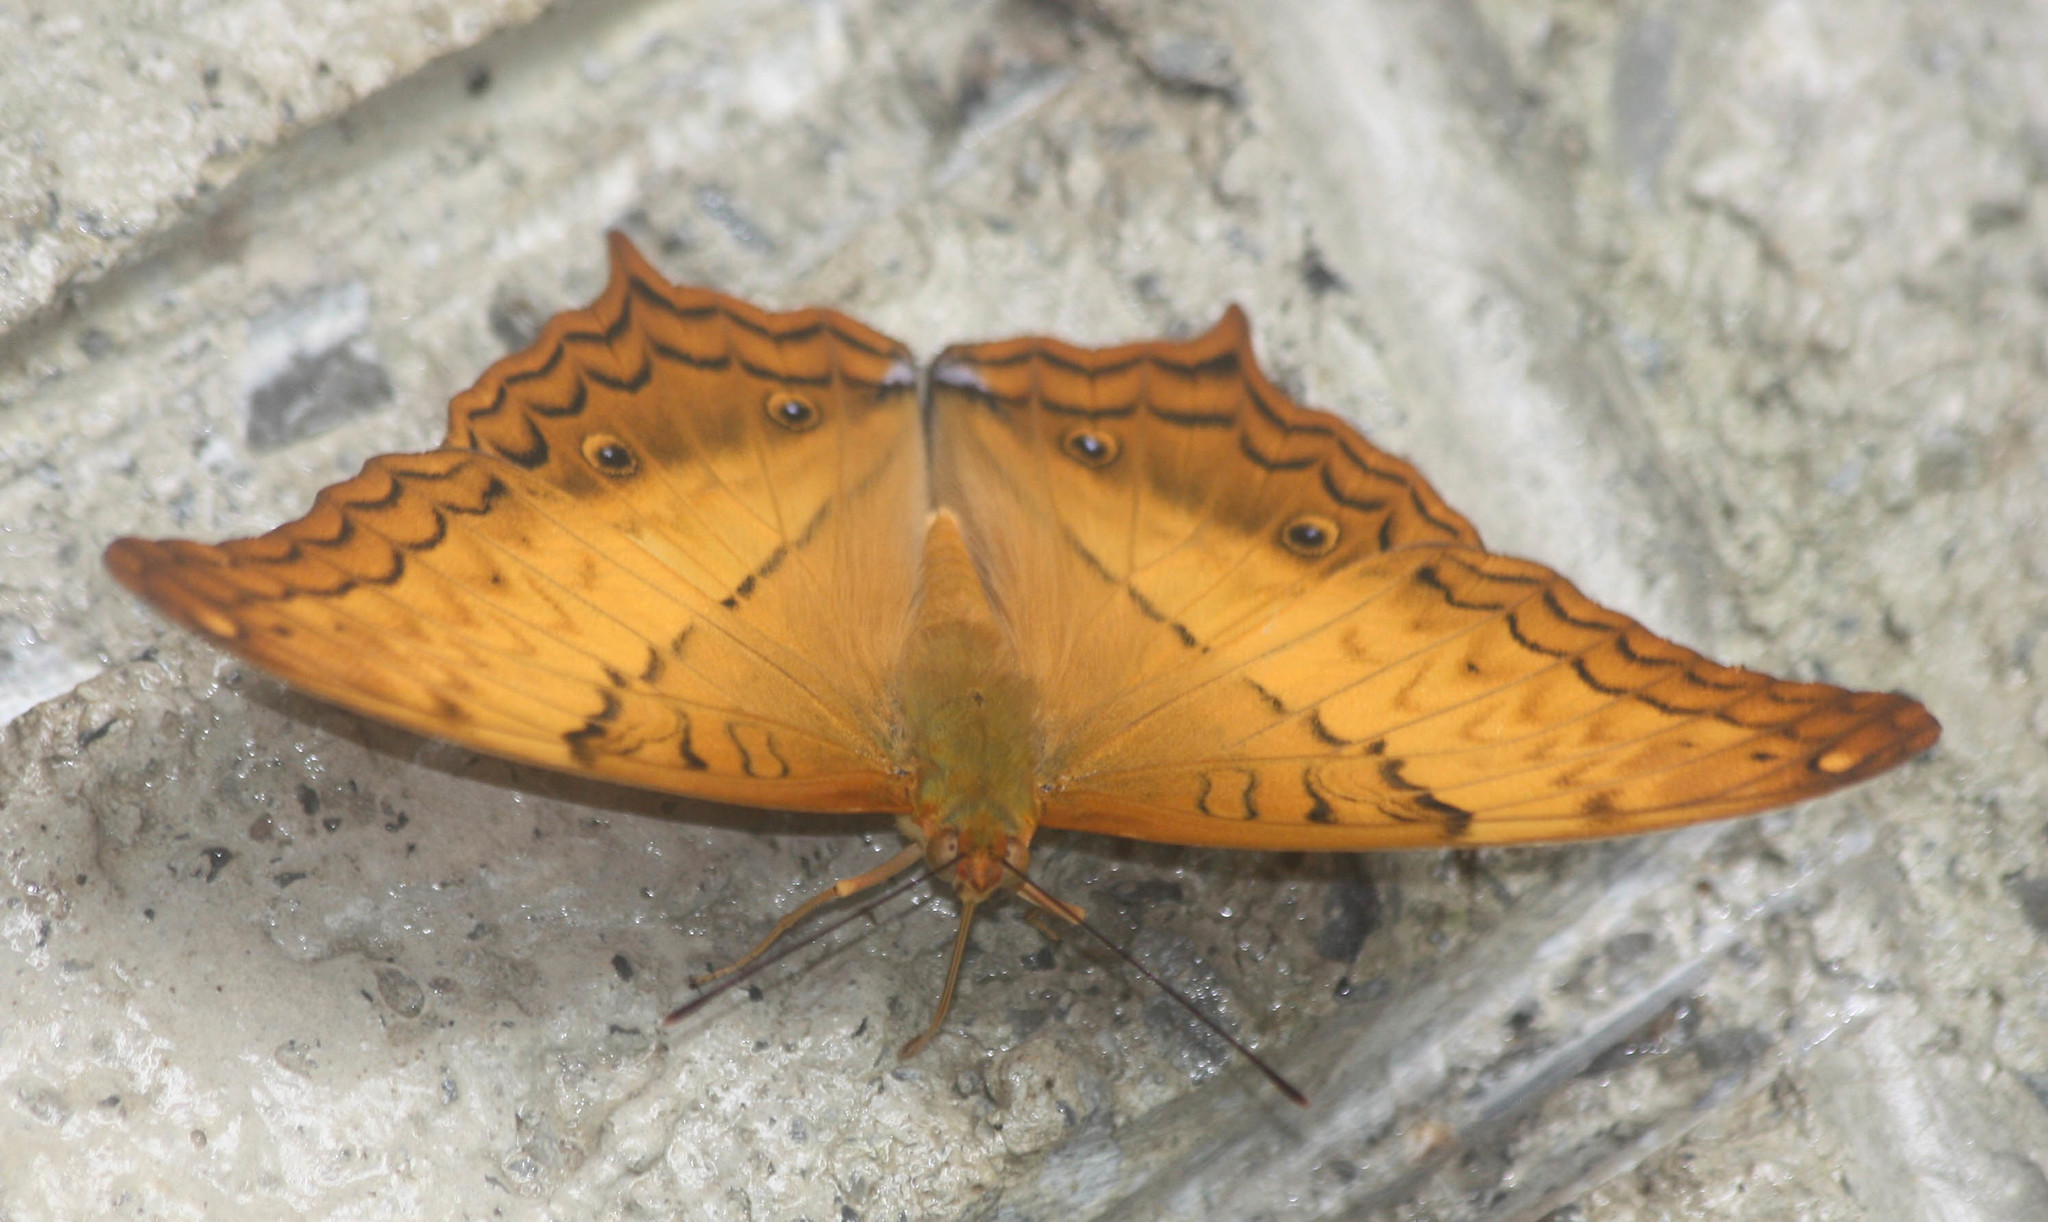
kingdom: Animalia
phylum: Arthropoda
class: Insecta
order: Lepidoptera
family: Nymphalidae
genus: Vindula
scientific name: Vindula erota
